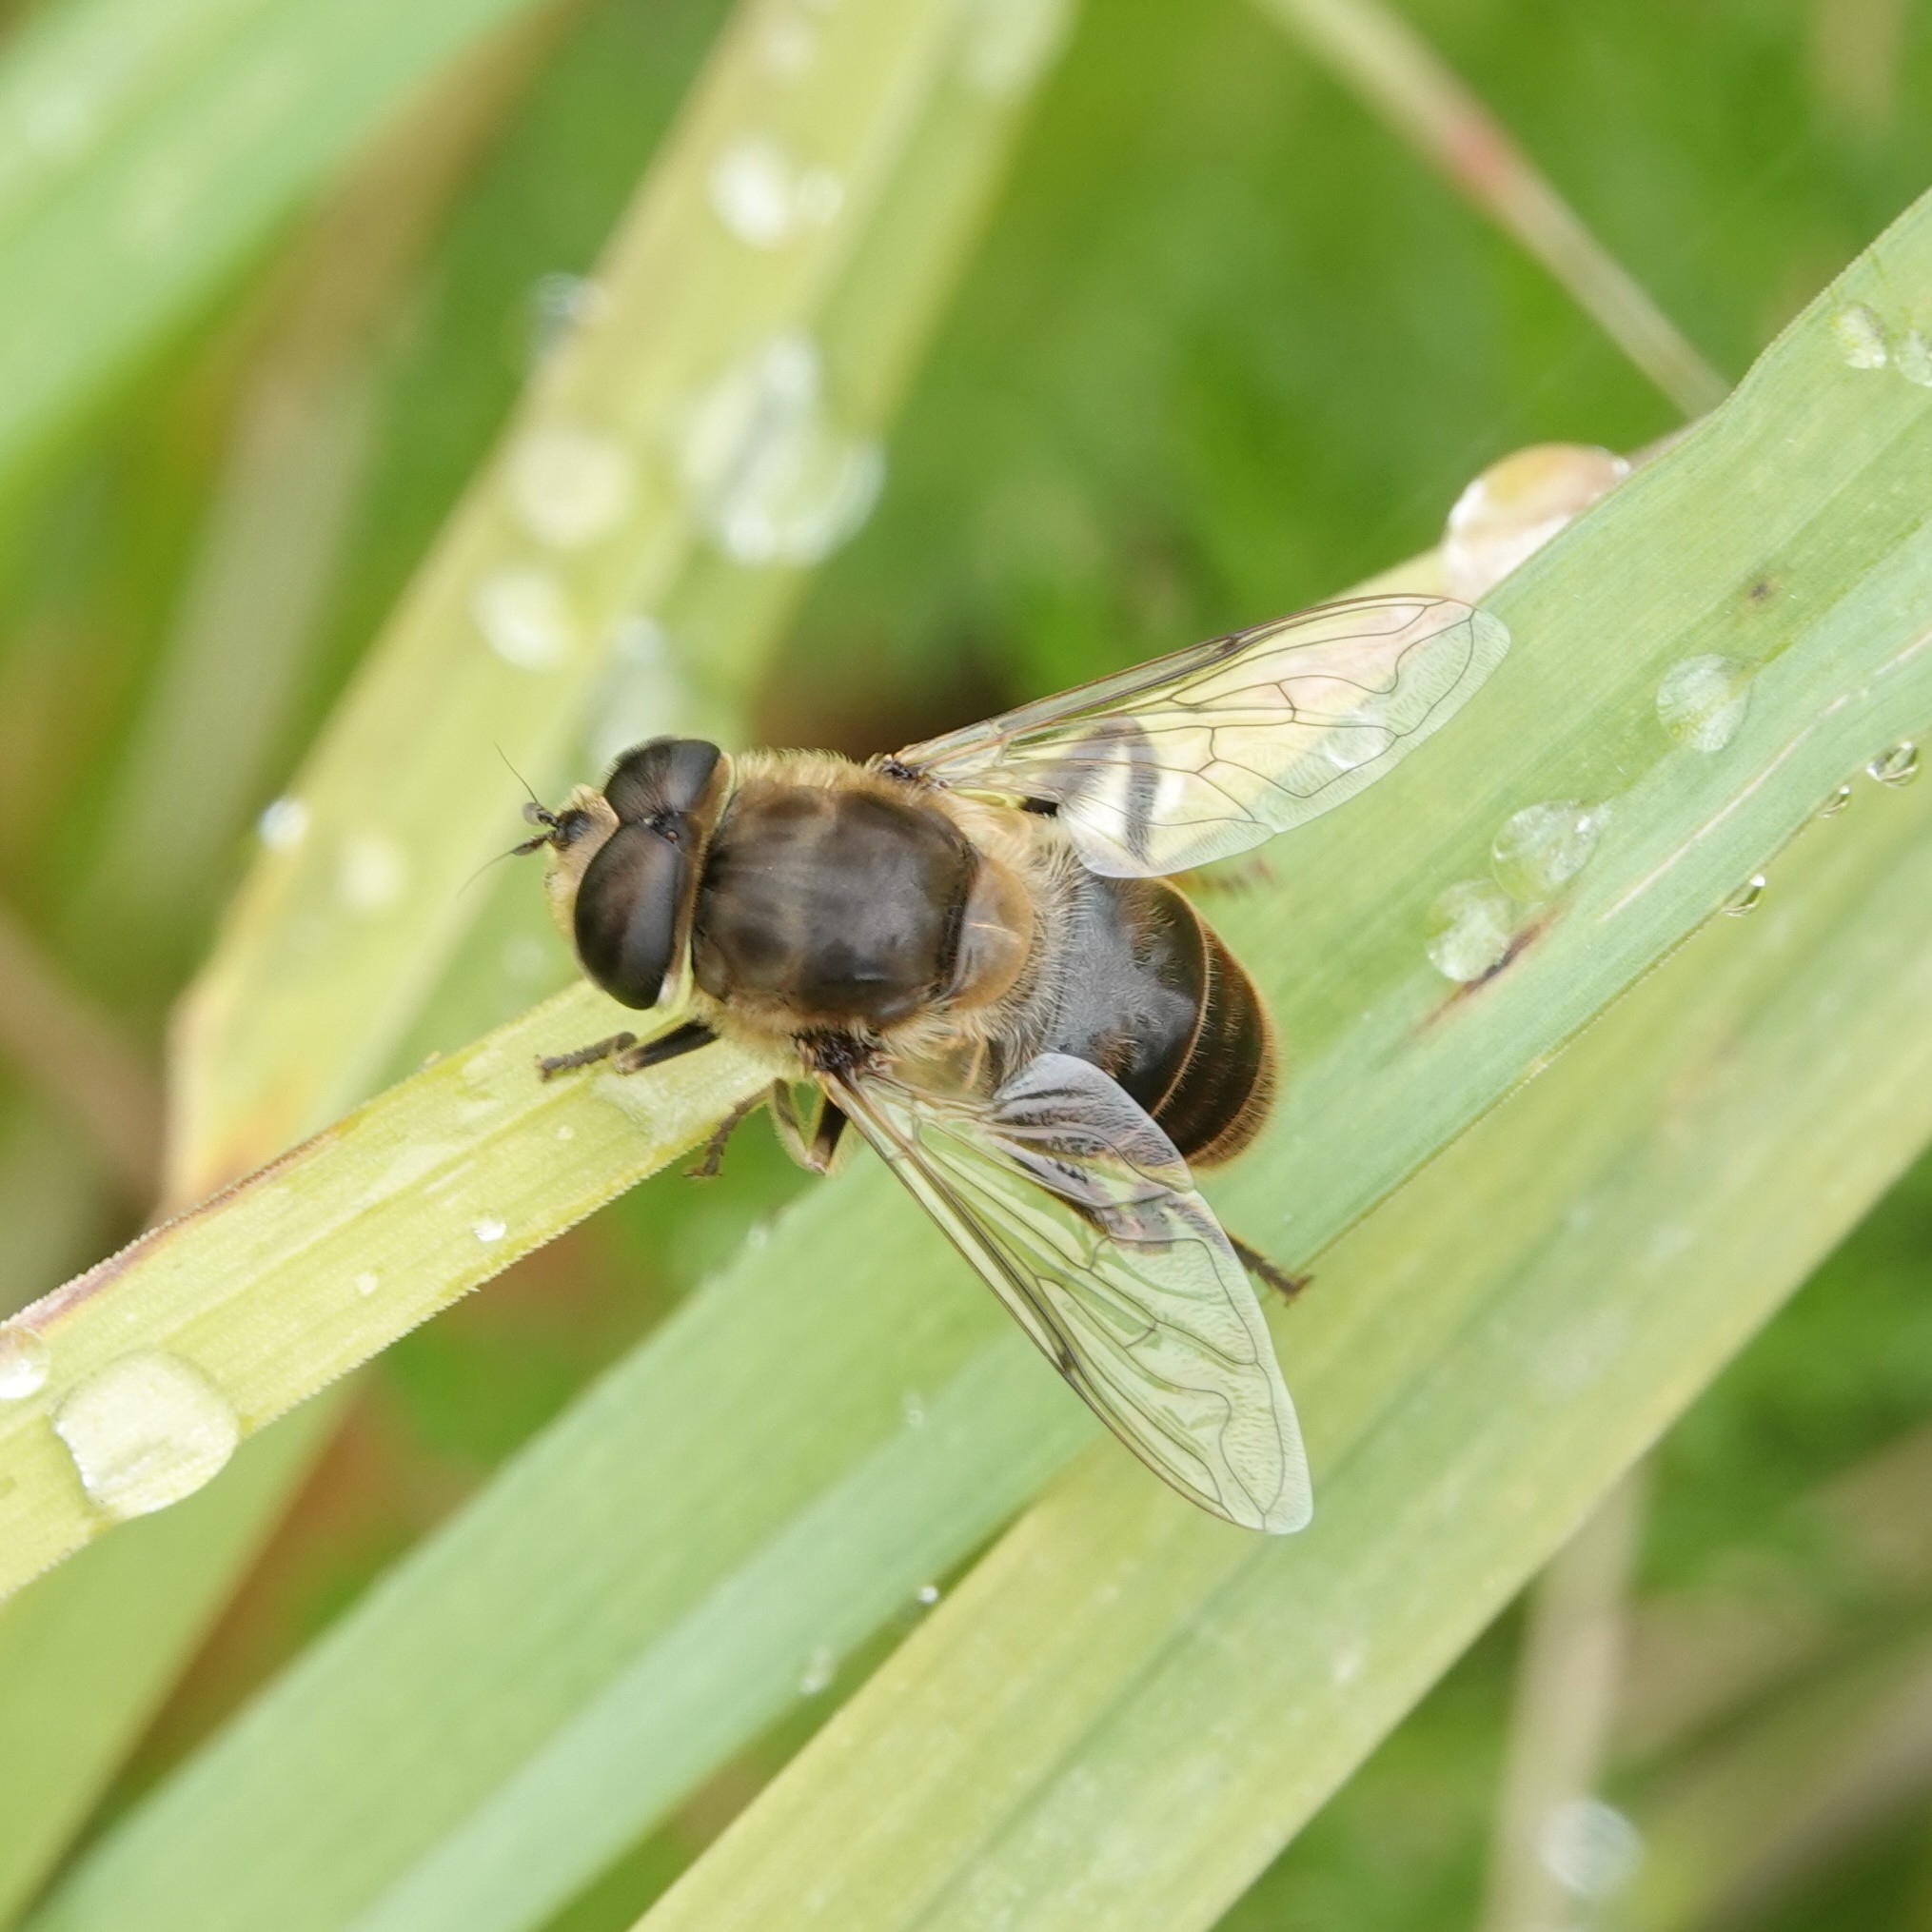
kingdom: Animalia
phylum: Arthropoda
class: Insecta
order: Diptera
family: Syrphidae
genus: Eristalis
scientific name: Eristalis tenax
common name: Drone fly
